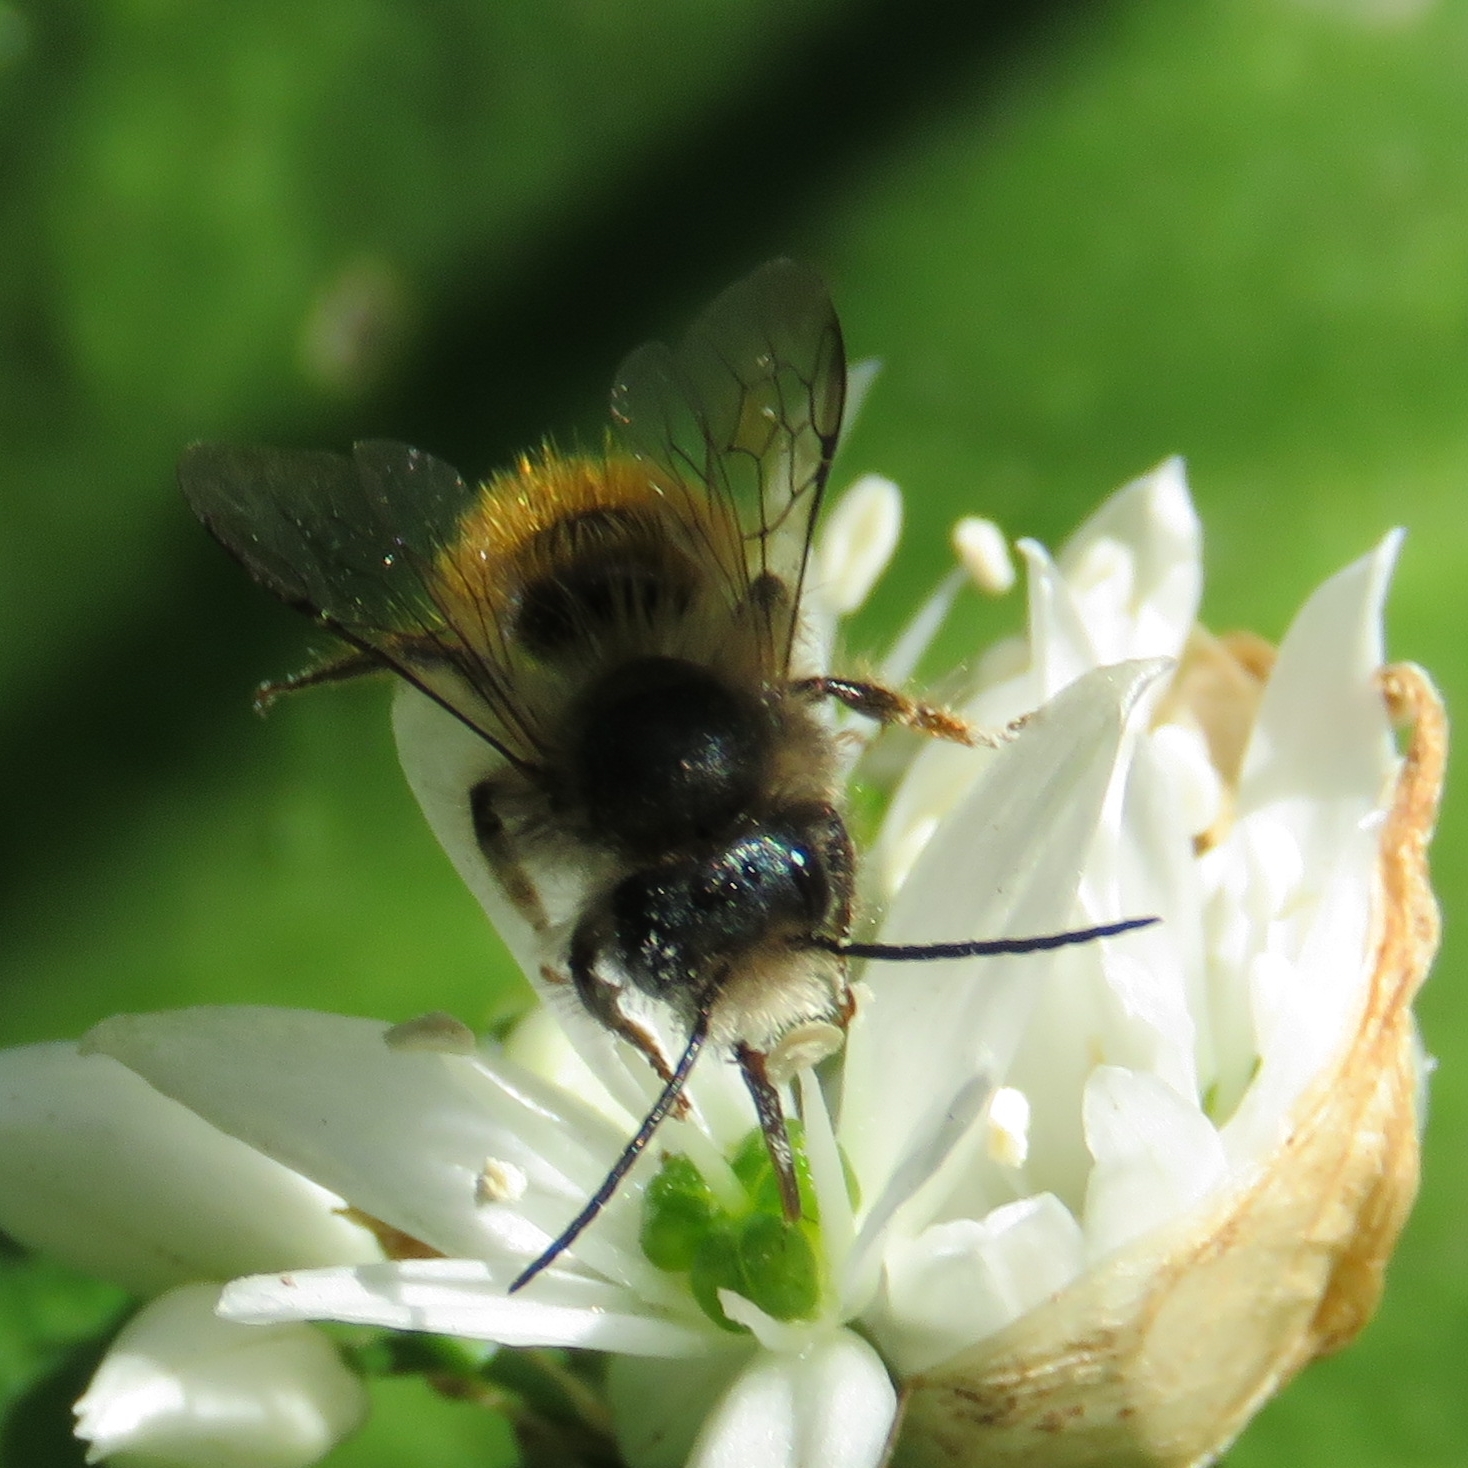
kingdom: Animalia
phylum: Arthropoda
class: Insecta
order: Hymenoptera
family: Megachilidae
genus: Osmia
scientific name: Osmia bicornis
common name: Red mason bee
